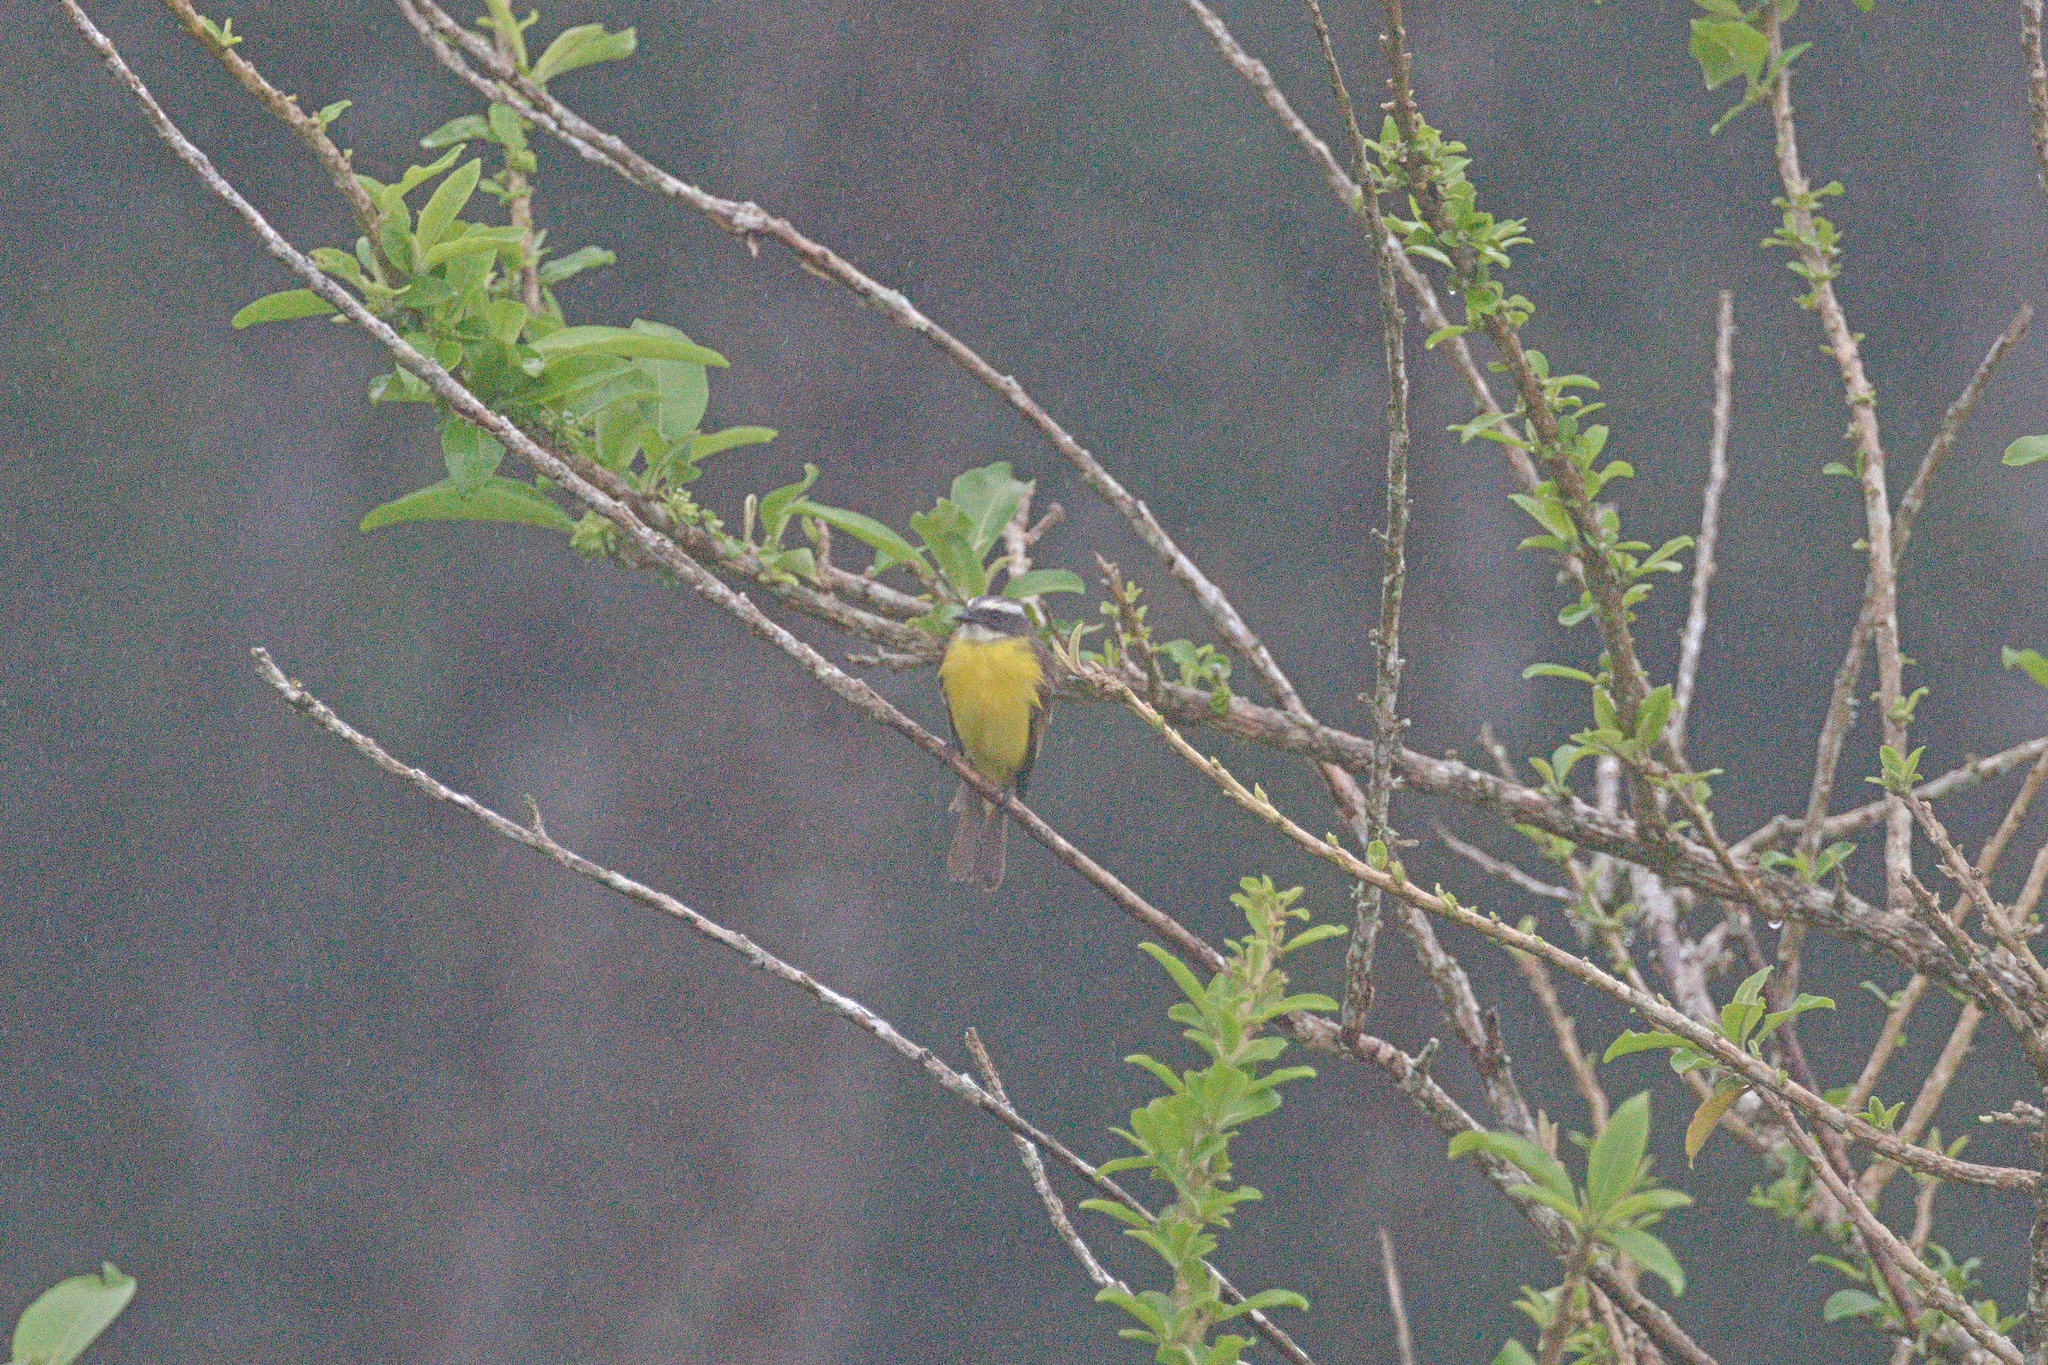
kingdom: Animalia
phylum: Chordata
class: Aves
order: Passeriformes
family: Tyrannidae
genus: Myiozetetes
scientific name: Myiozetetes similis
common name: Social flycatcher
